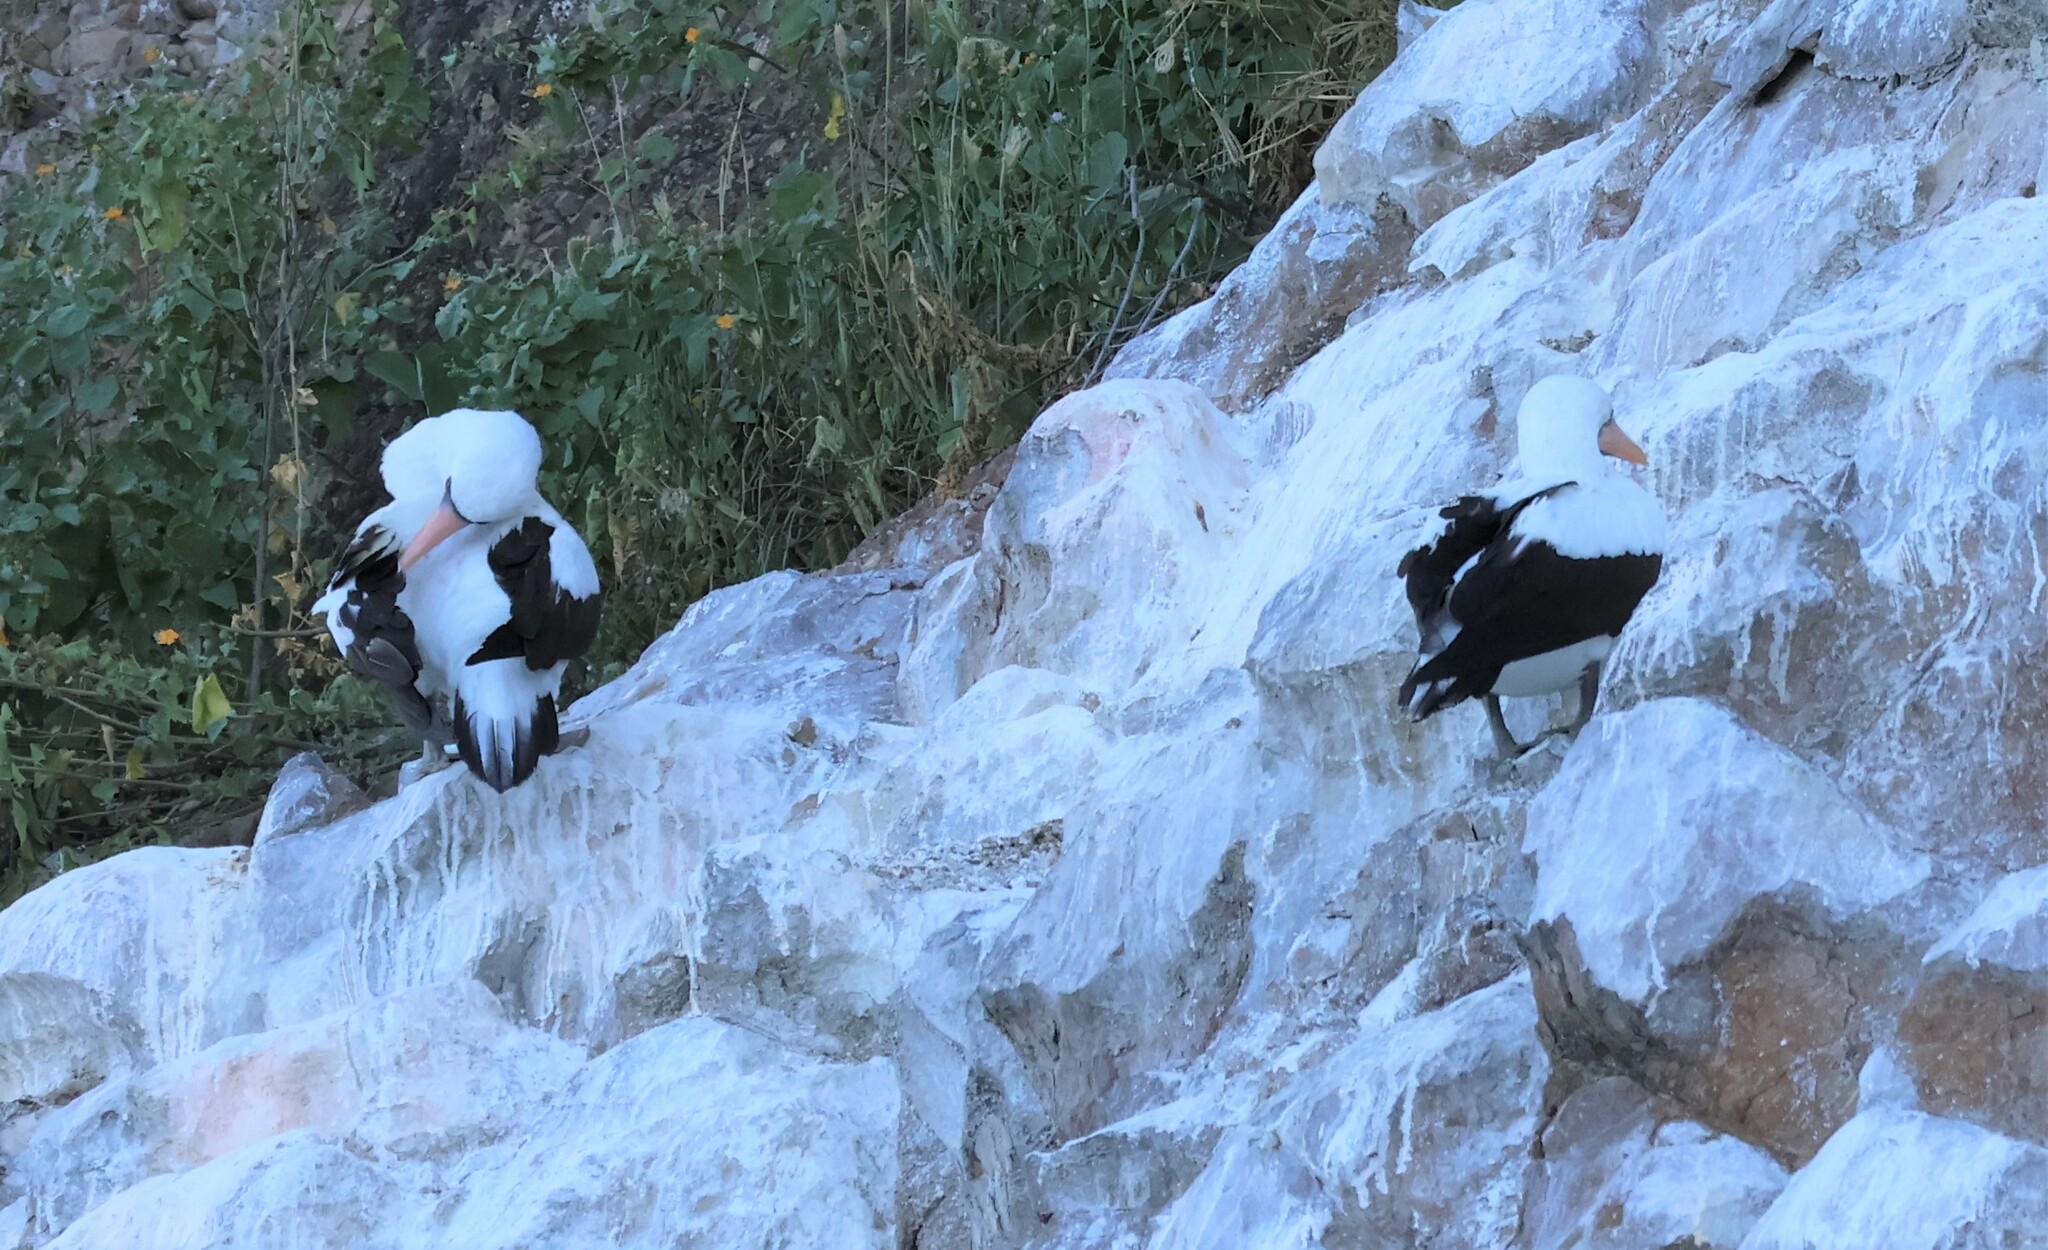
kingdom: Animalia
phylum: Chordata
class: Aves
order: Suliformes
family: Sulidae
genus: Sula
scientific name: Sula granti
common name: Nazca booby
